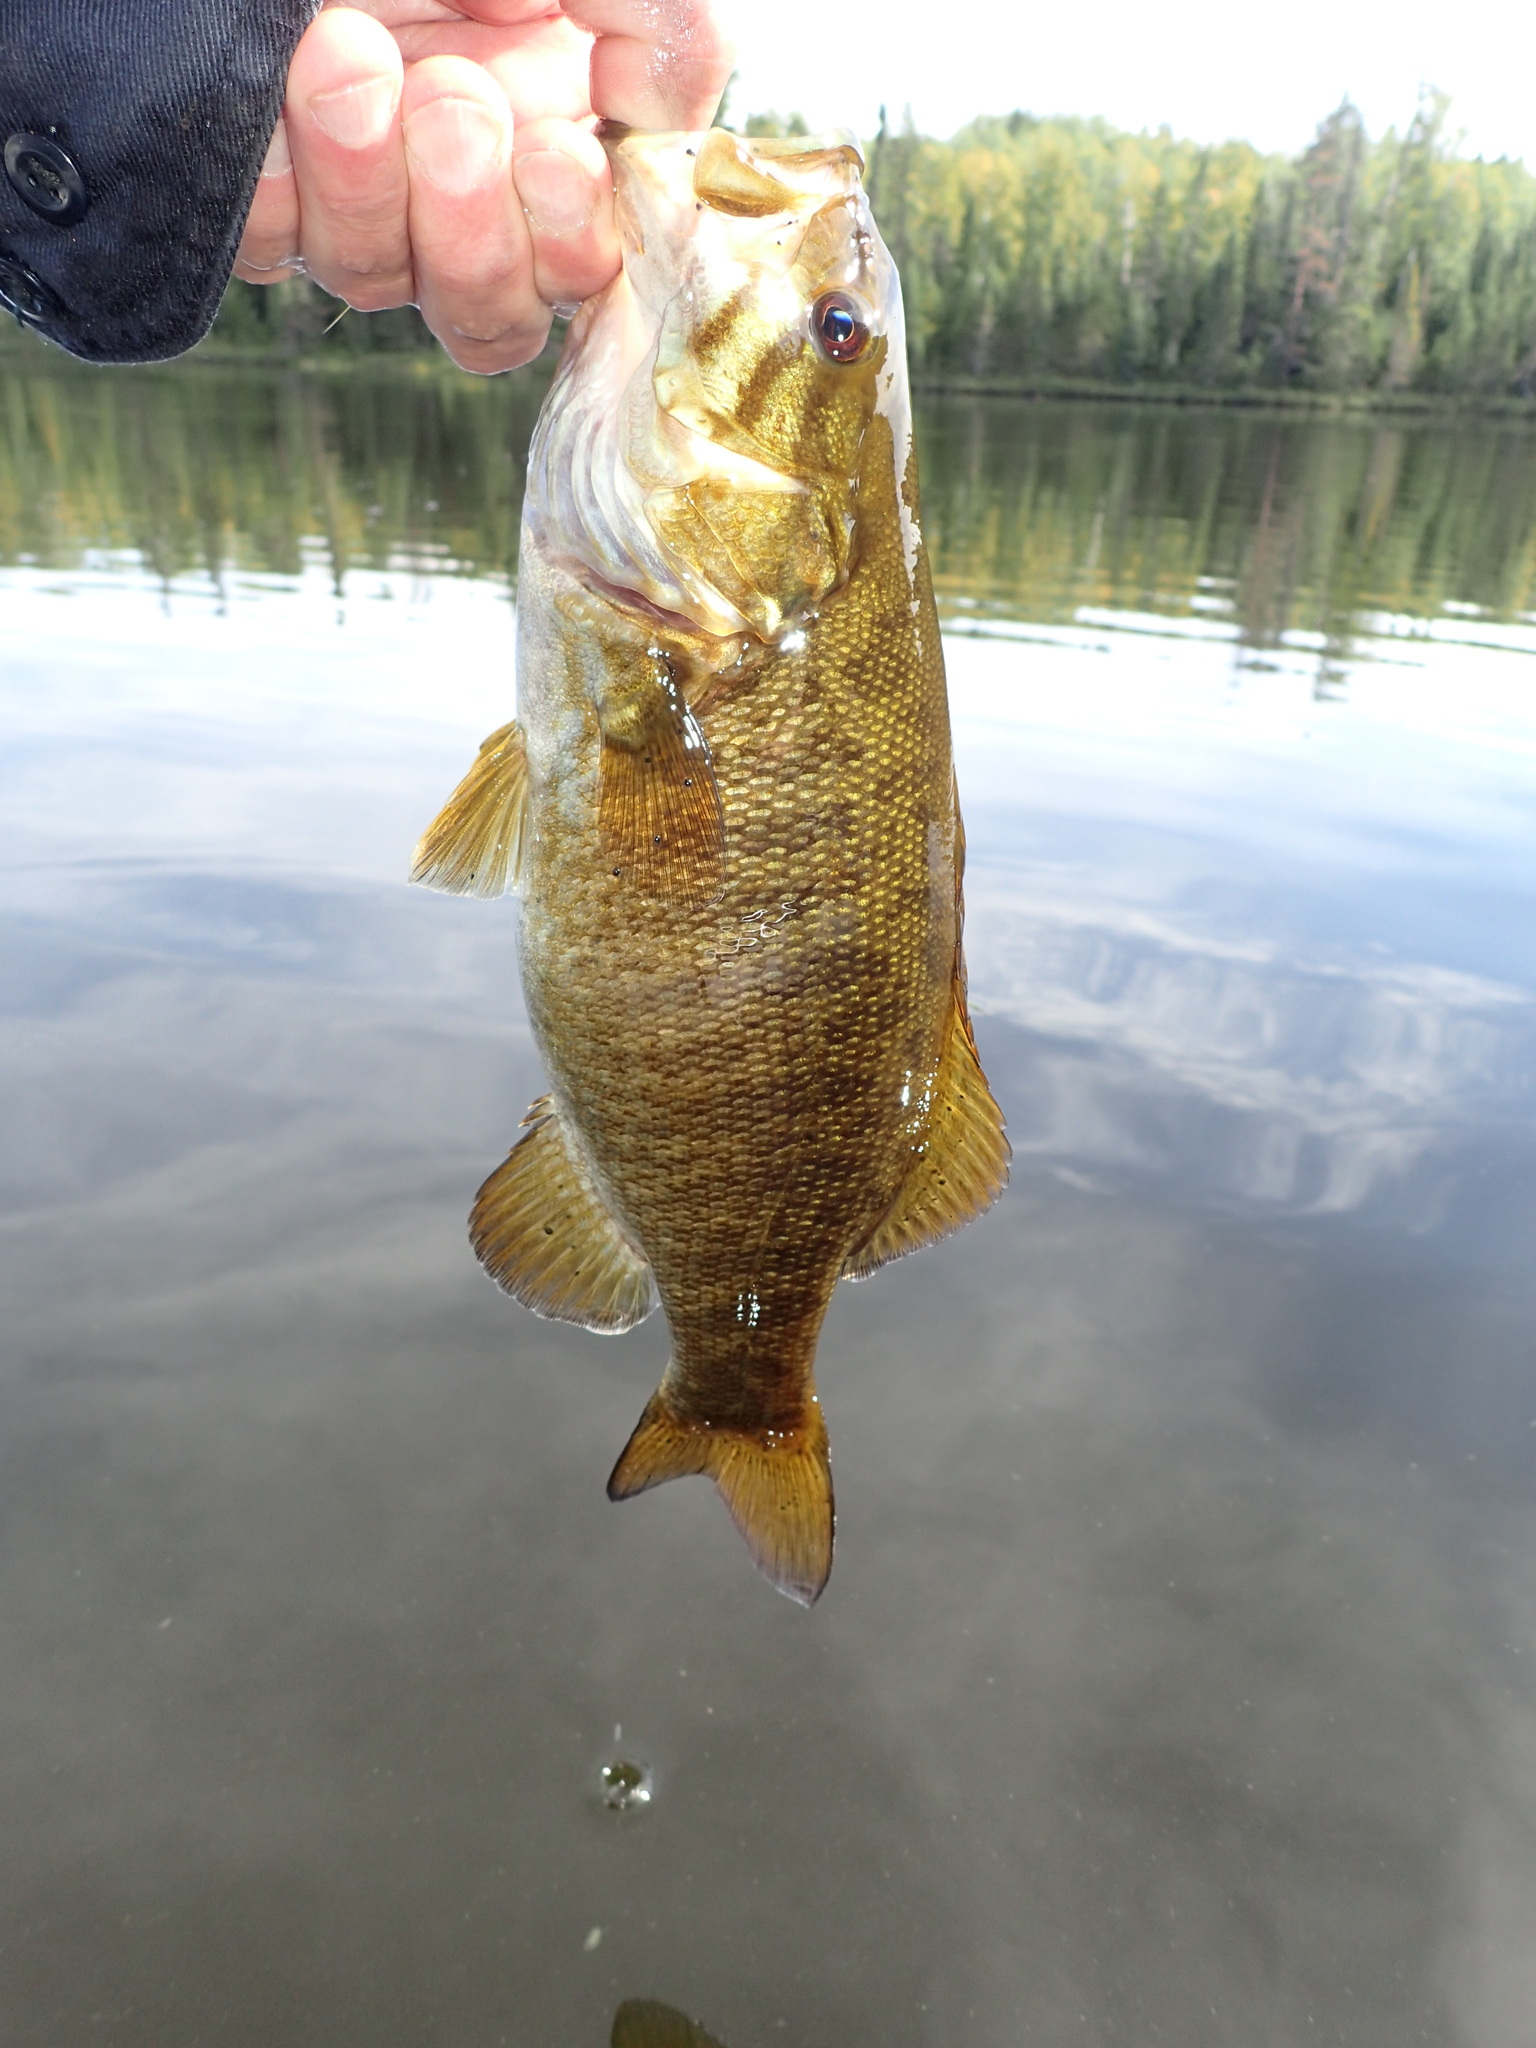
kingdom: Animalia
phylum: Chordata
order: Perciformes
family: Centrarchidae
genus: Micropterus
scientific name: Micropterus dolomieu
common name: Smallmouth bass
